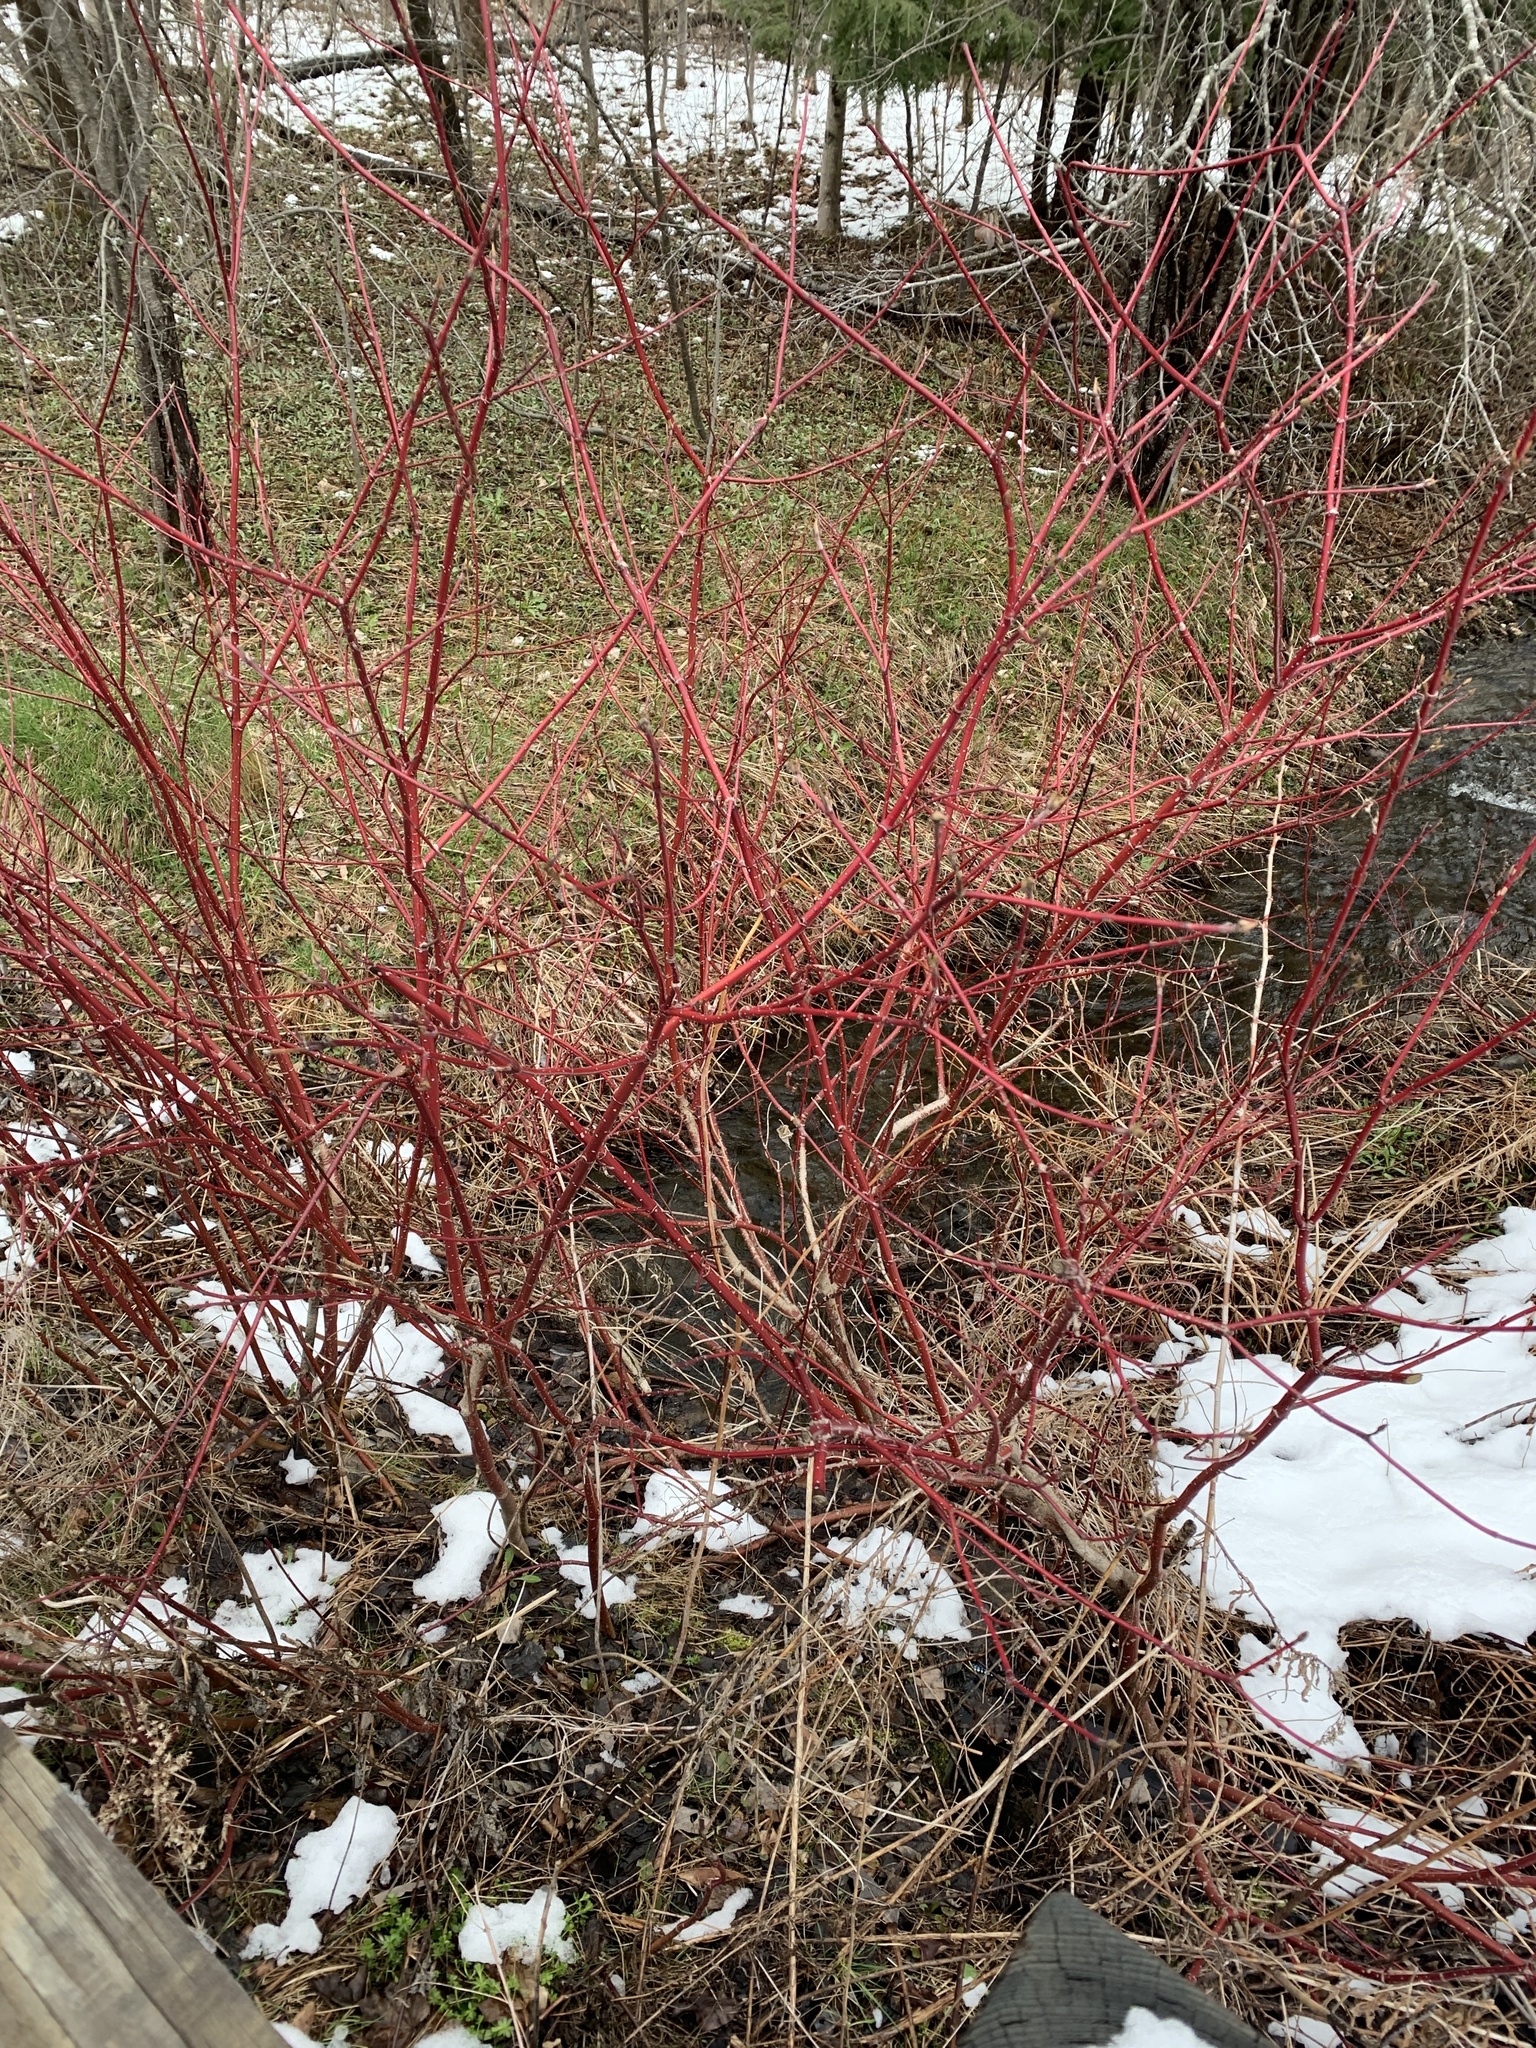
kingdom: Plantae
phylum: Tracheophyta
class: Magnoliopsida
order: Cornales
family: Cornaceae
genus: Cornus
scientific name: Cornus sericea
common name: Red-osier dogwood
